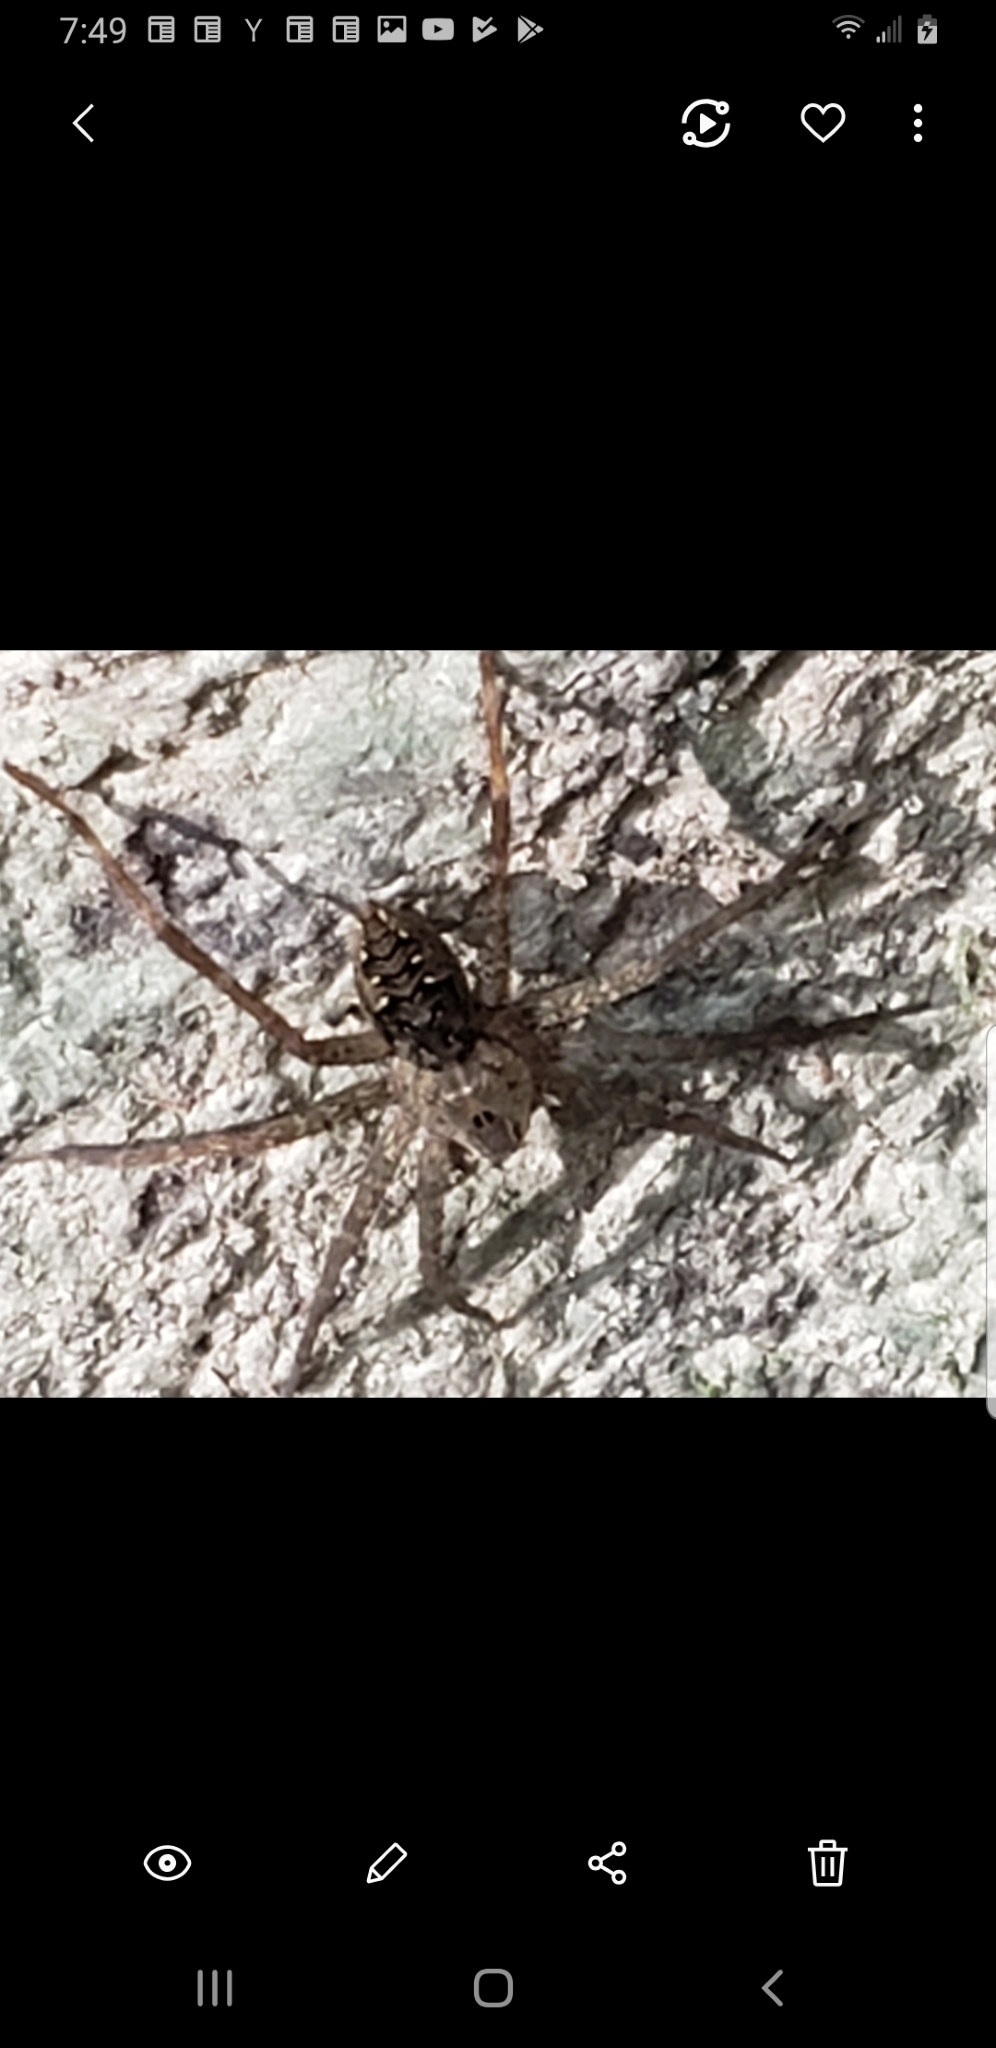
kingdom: Animalia
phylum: Arthropoda
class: Arachnida
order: Araneae
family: Pisauridae
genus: Dolomedes
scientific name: Dolomedes vittatus
